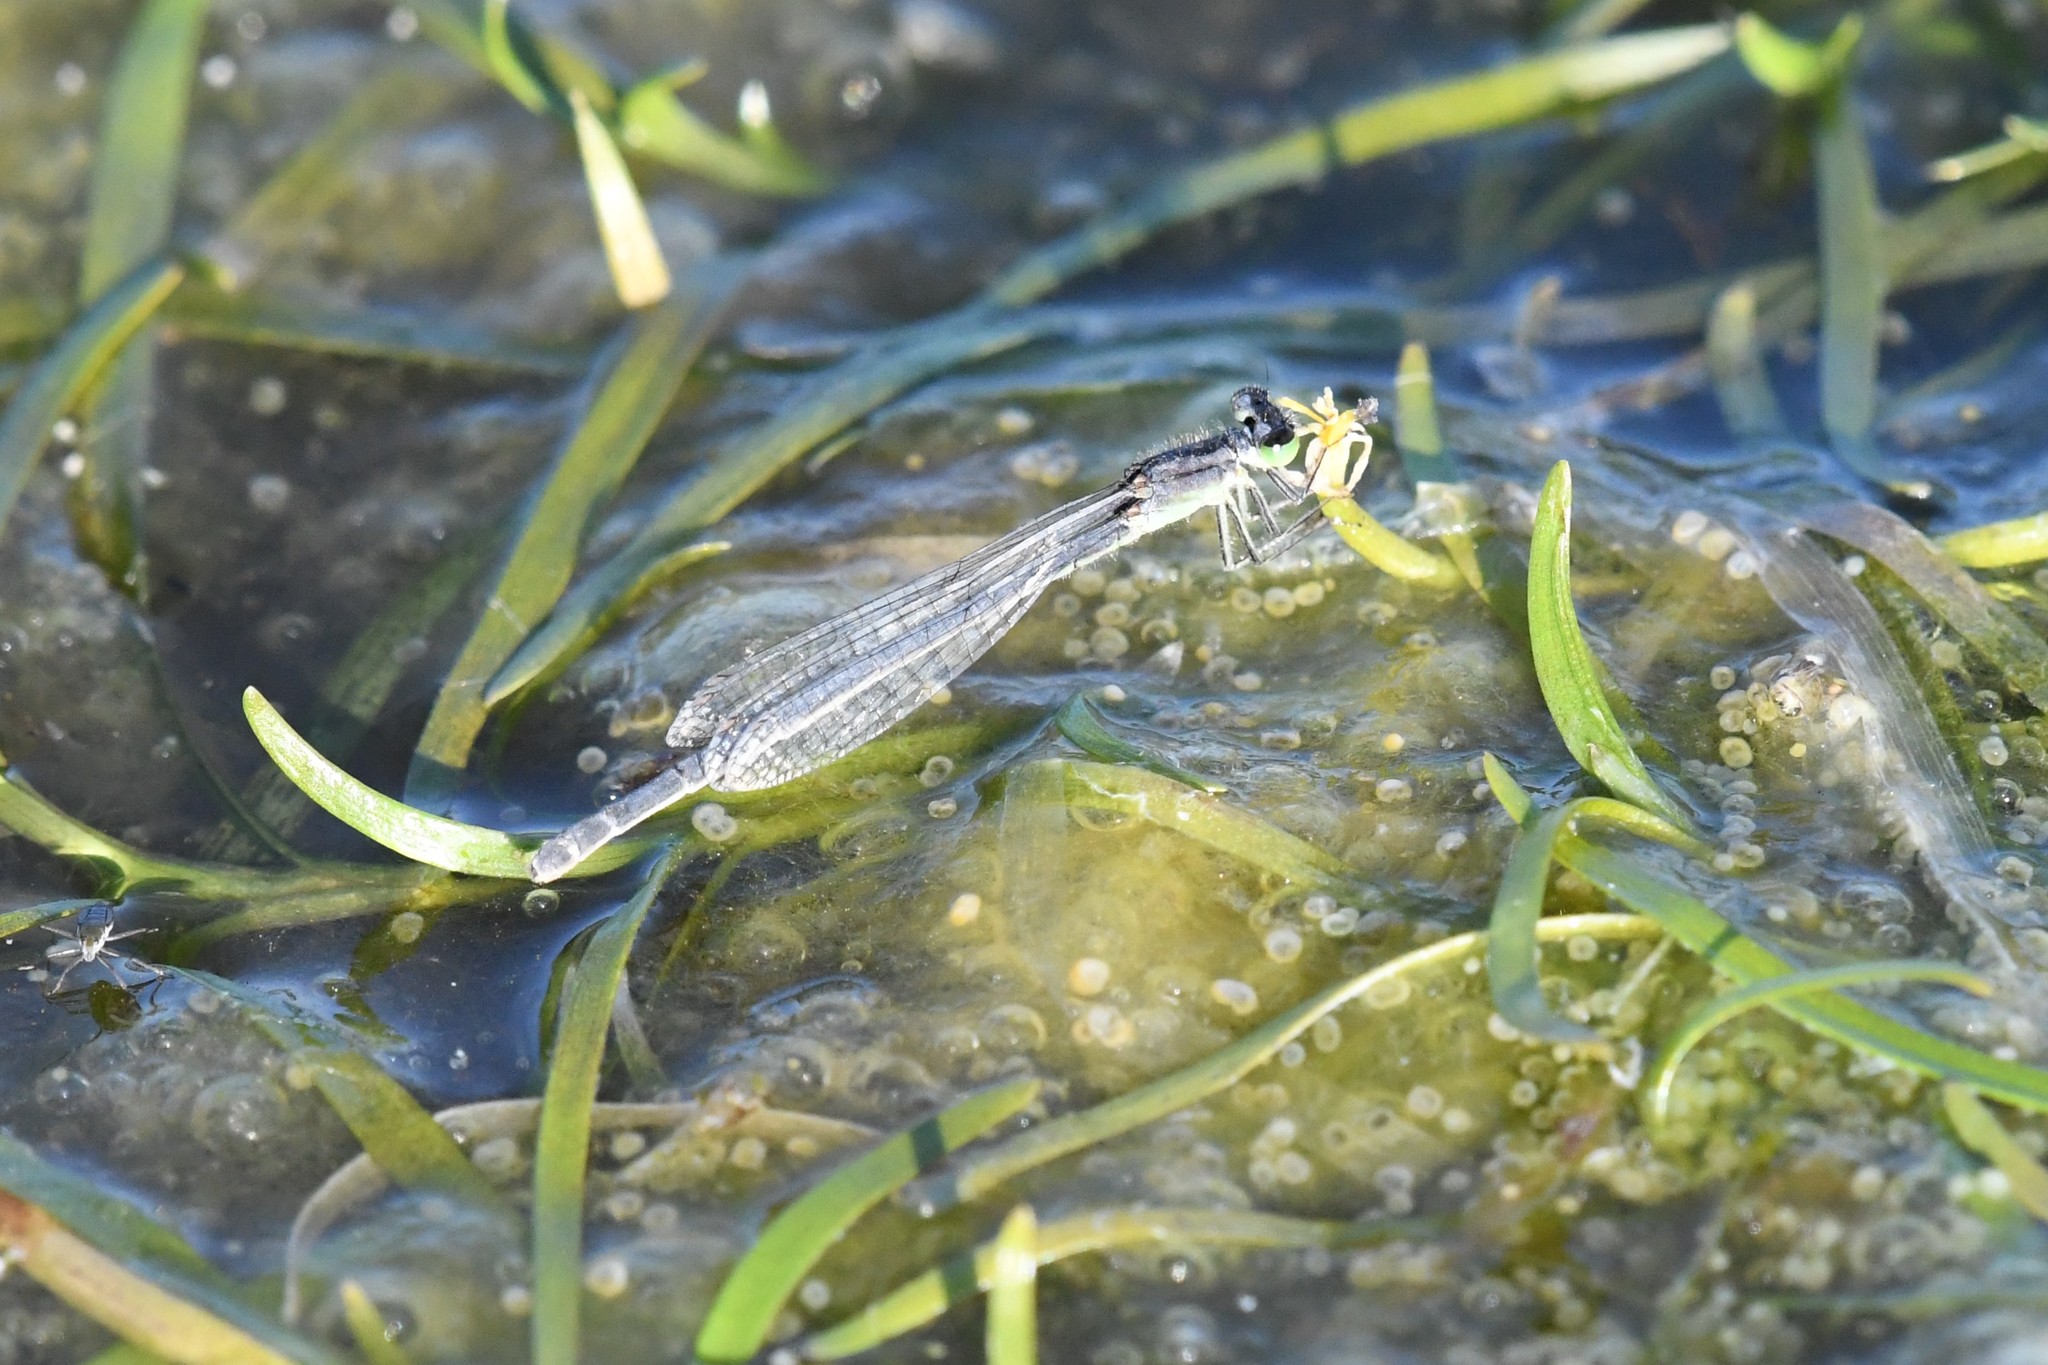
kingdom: Animalia
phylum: Arthropoda
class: Insecta
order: Odonata
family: Coenagrionidae
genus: Ischnura
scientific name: Ischnura verticalis
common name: Eastern forktail
